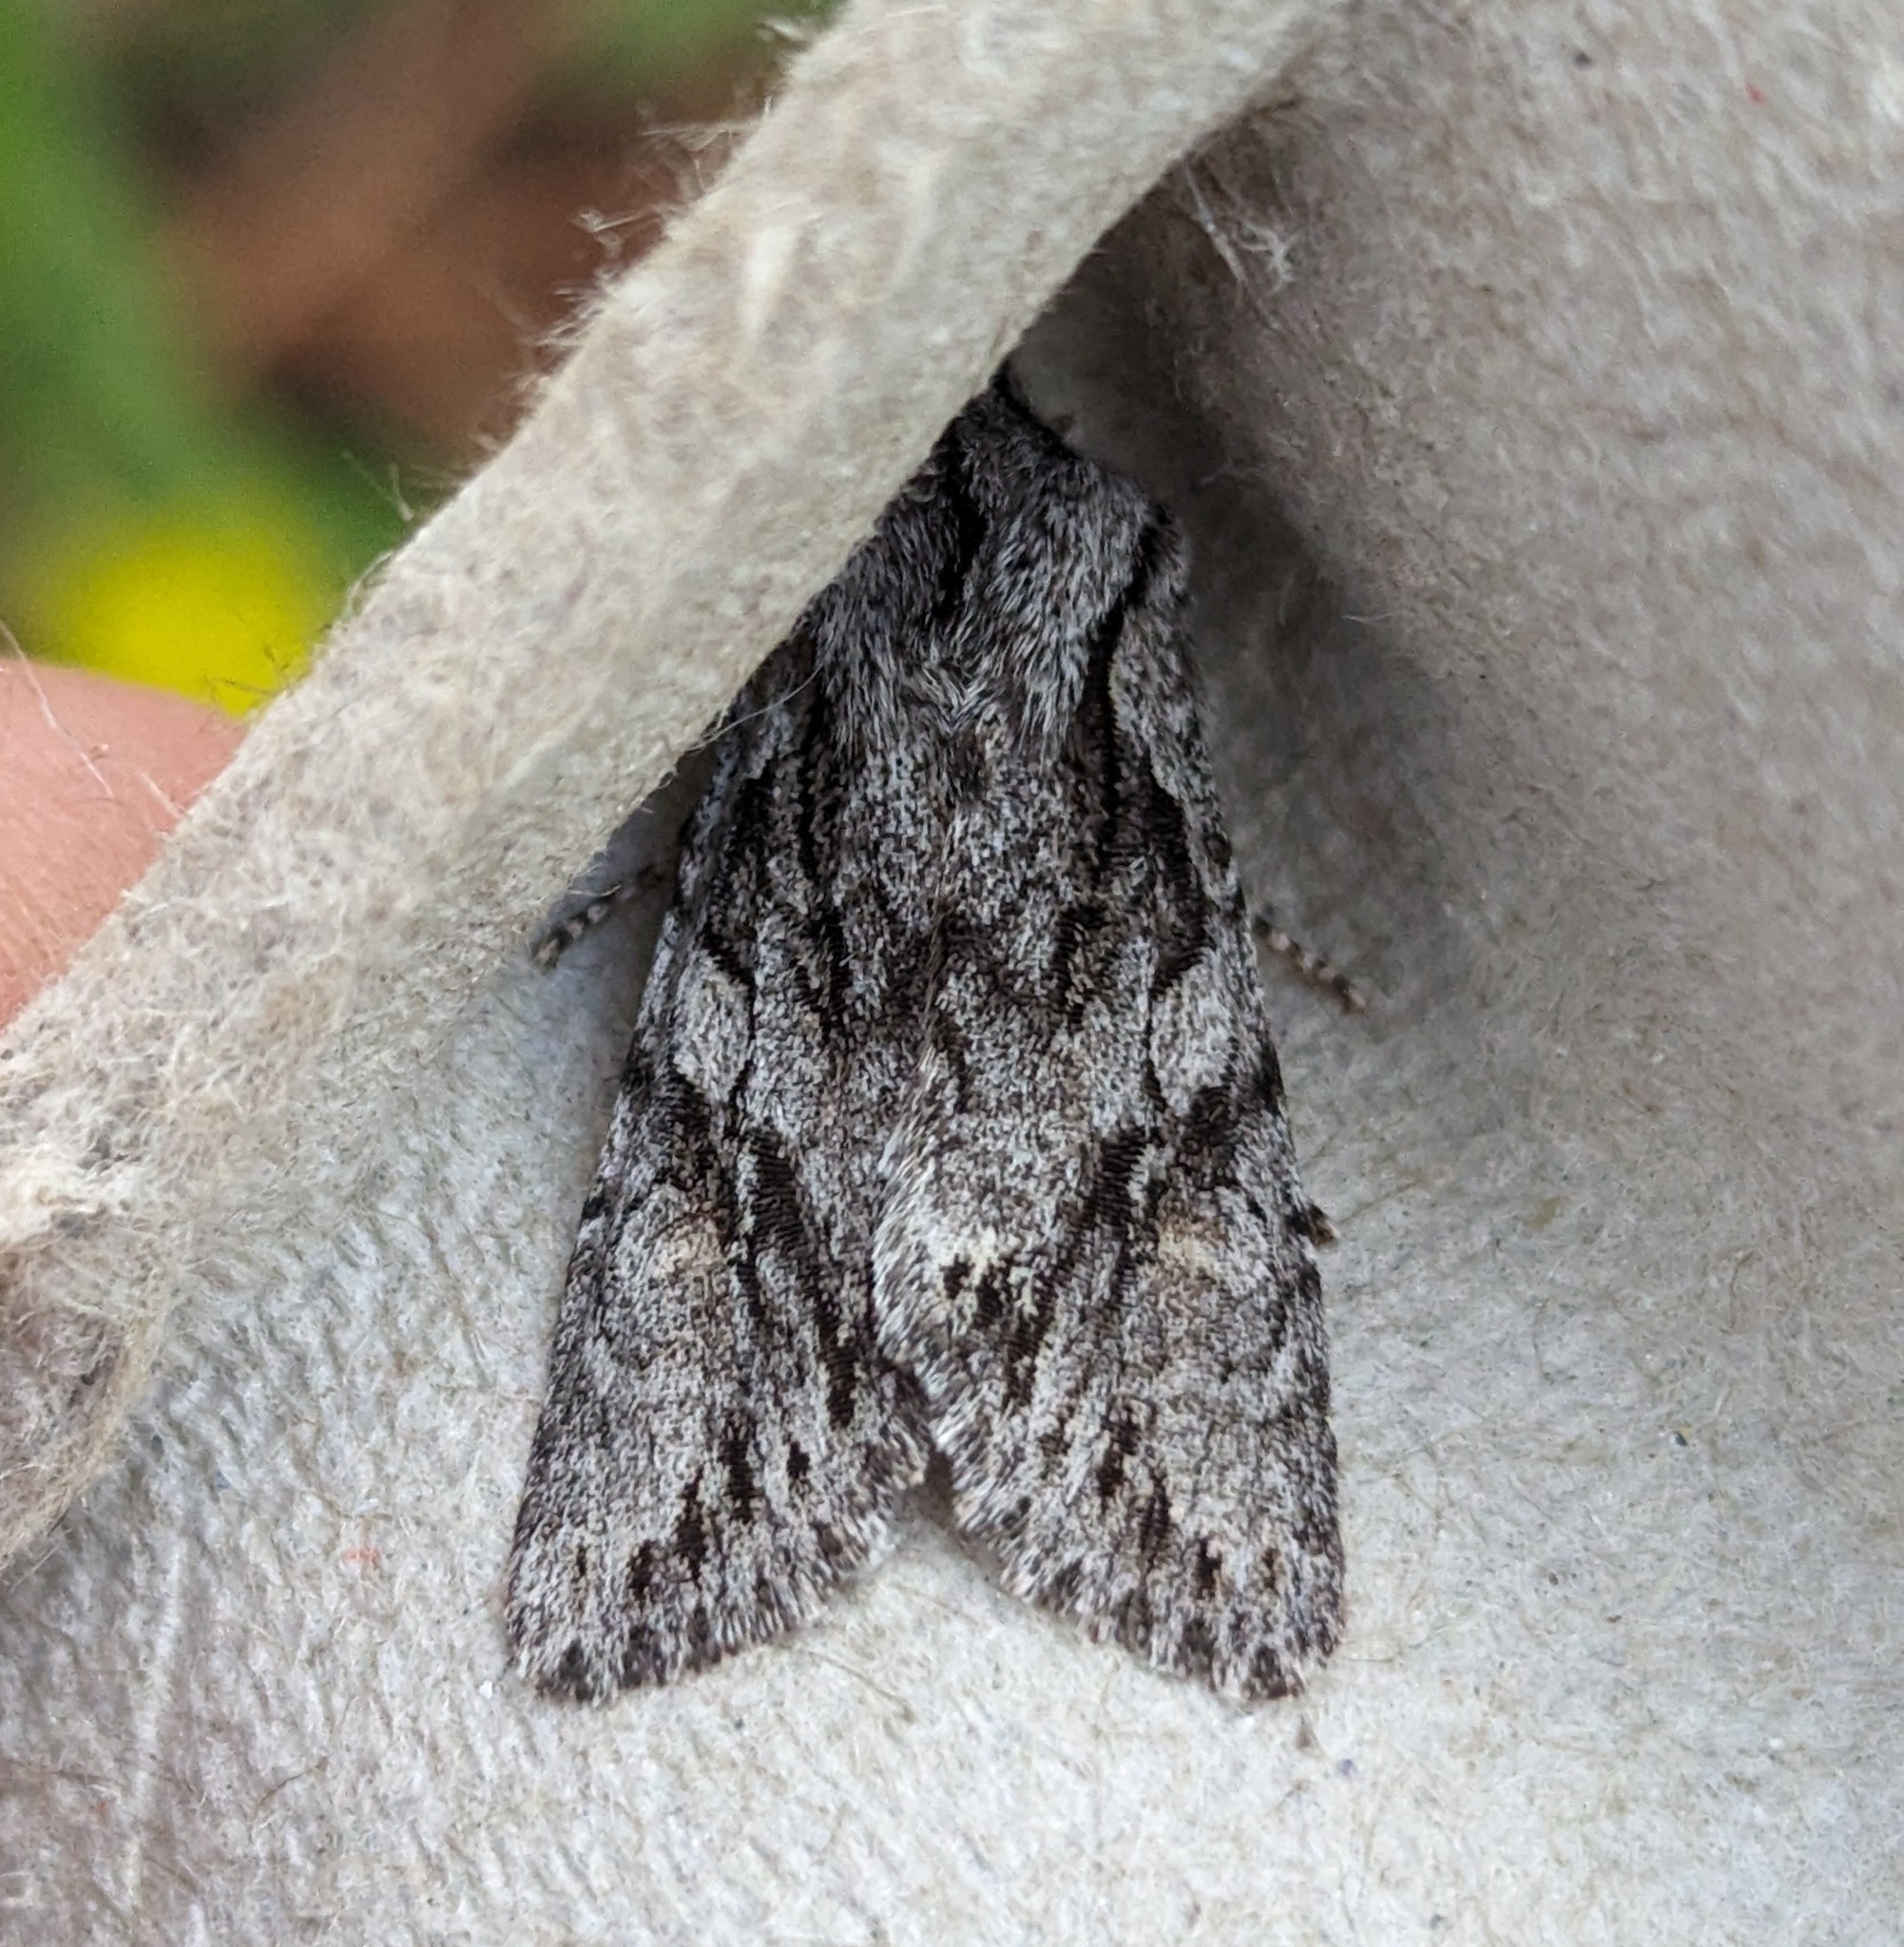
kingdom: Animalia
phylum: Arthropoda
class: Insecta
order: Lepidoptera
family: Noctuidae
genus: Egira
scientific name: Egira simplex
